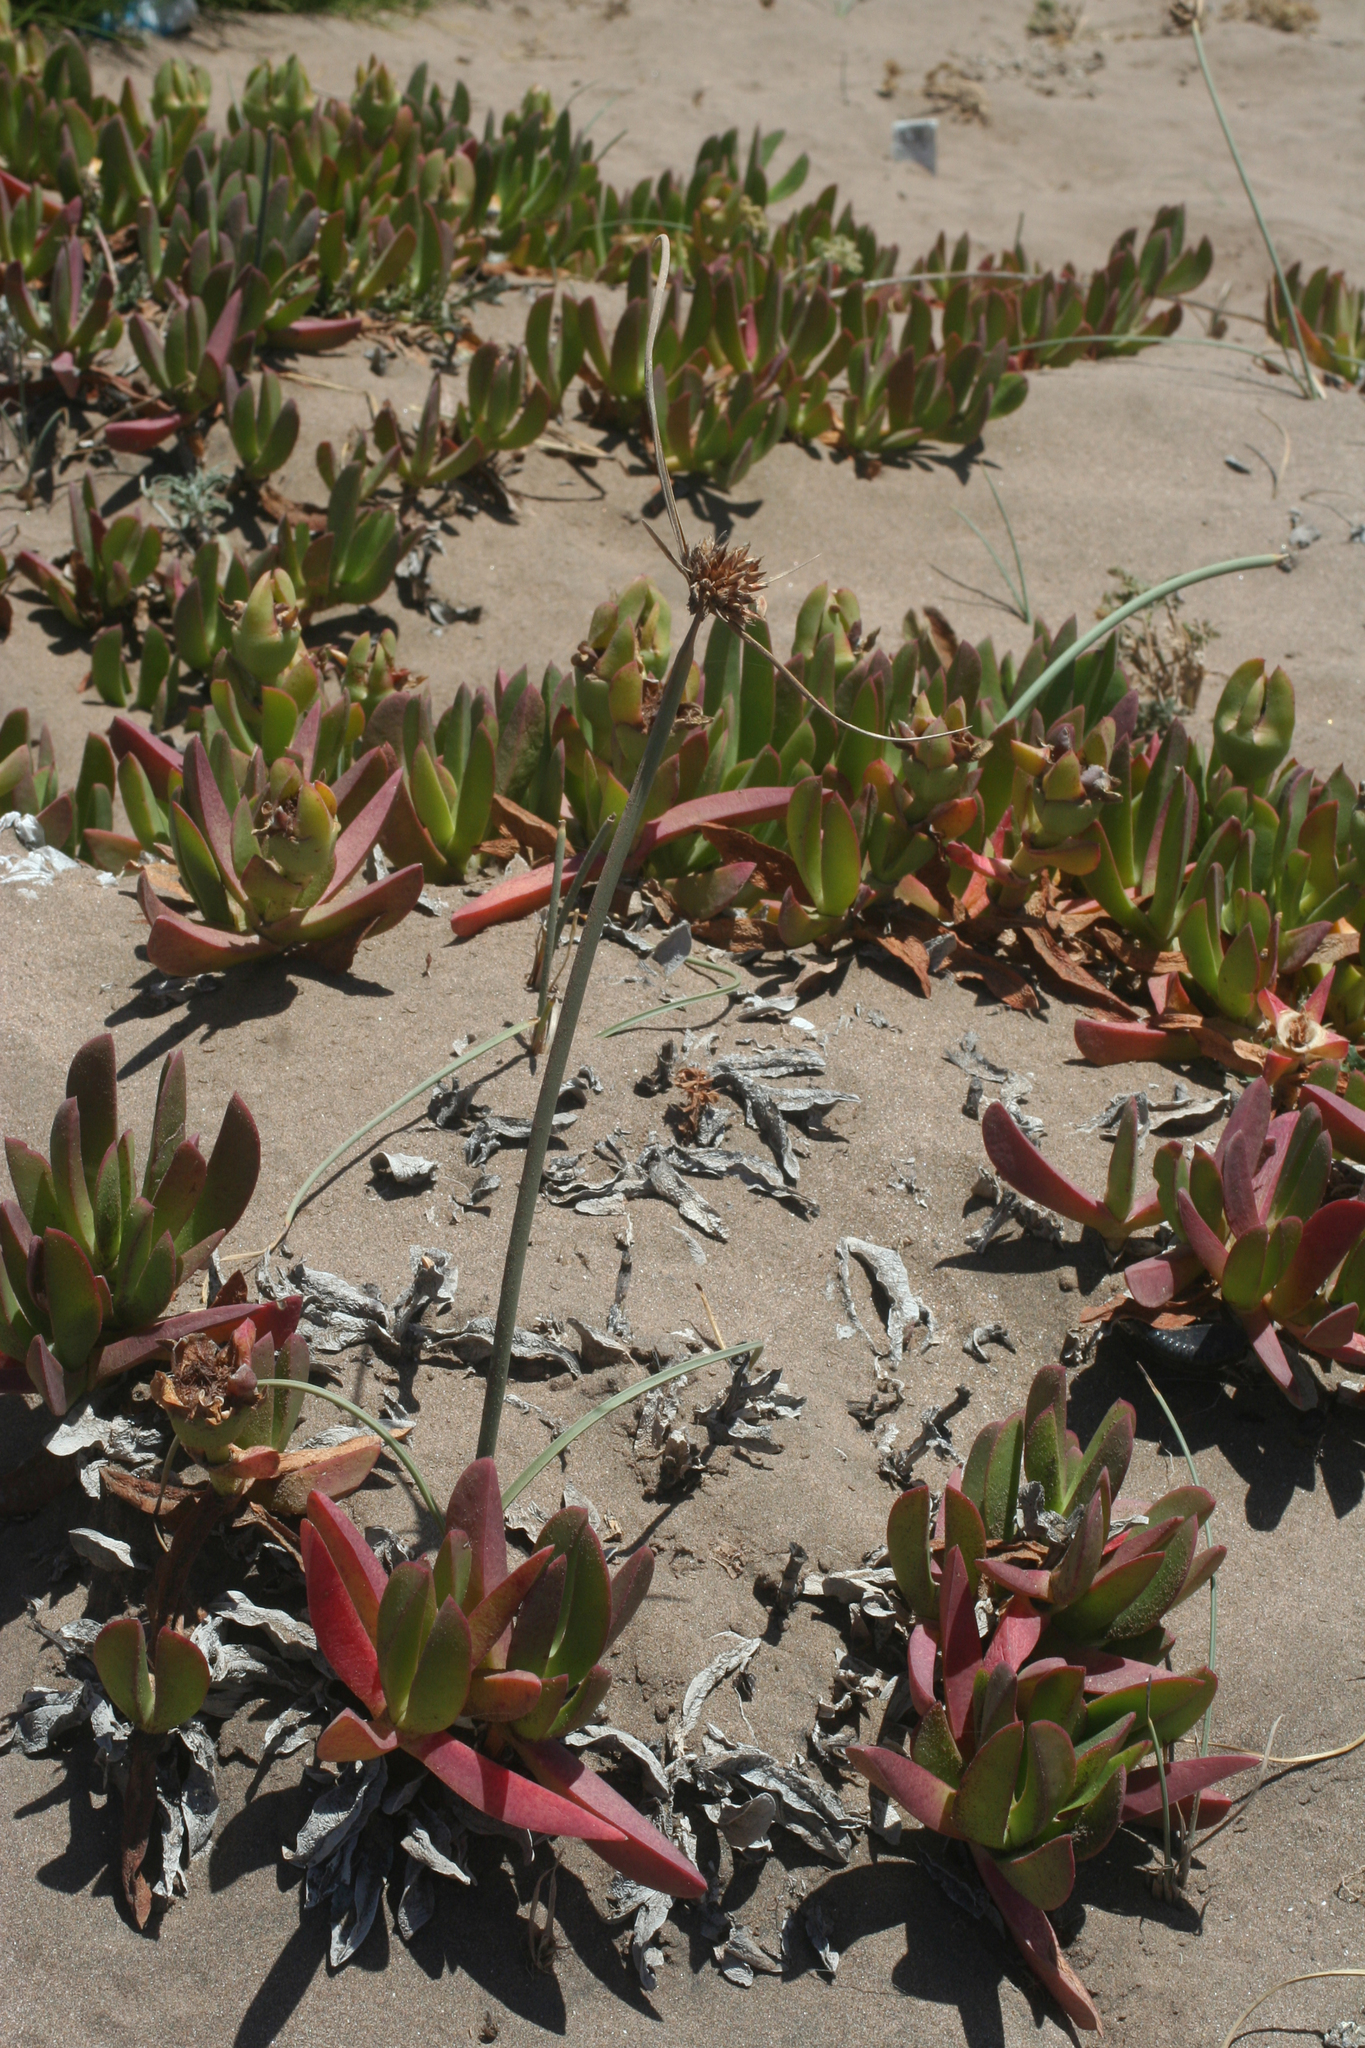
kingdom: Plantae
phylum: Tracheophyta
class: Liliopsida
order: Poales
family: Cyperaceae
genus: Cyperus
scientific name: Cyperus capitatus
